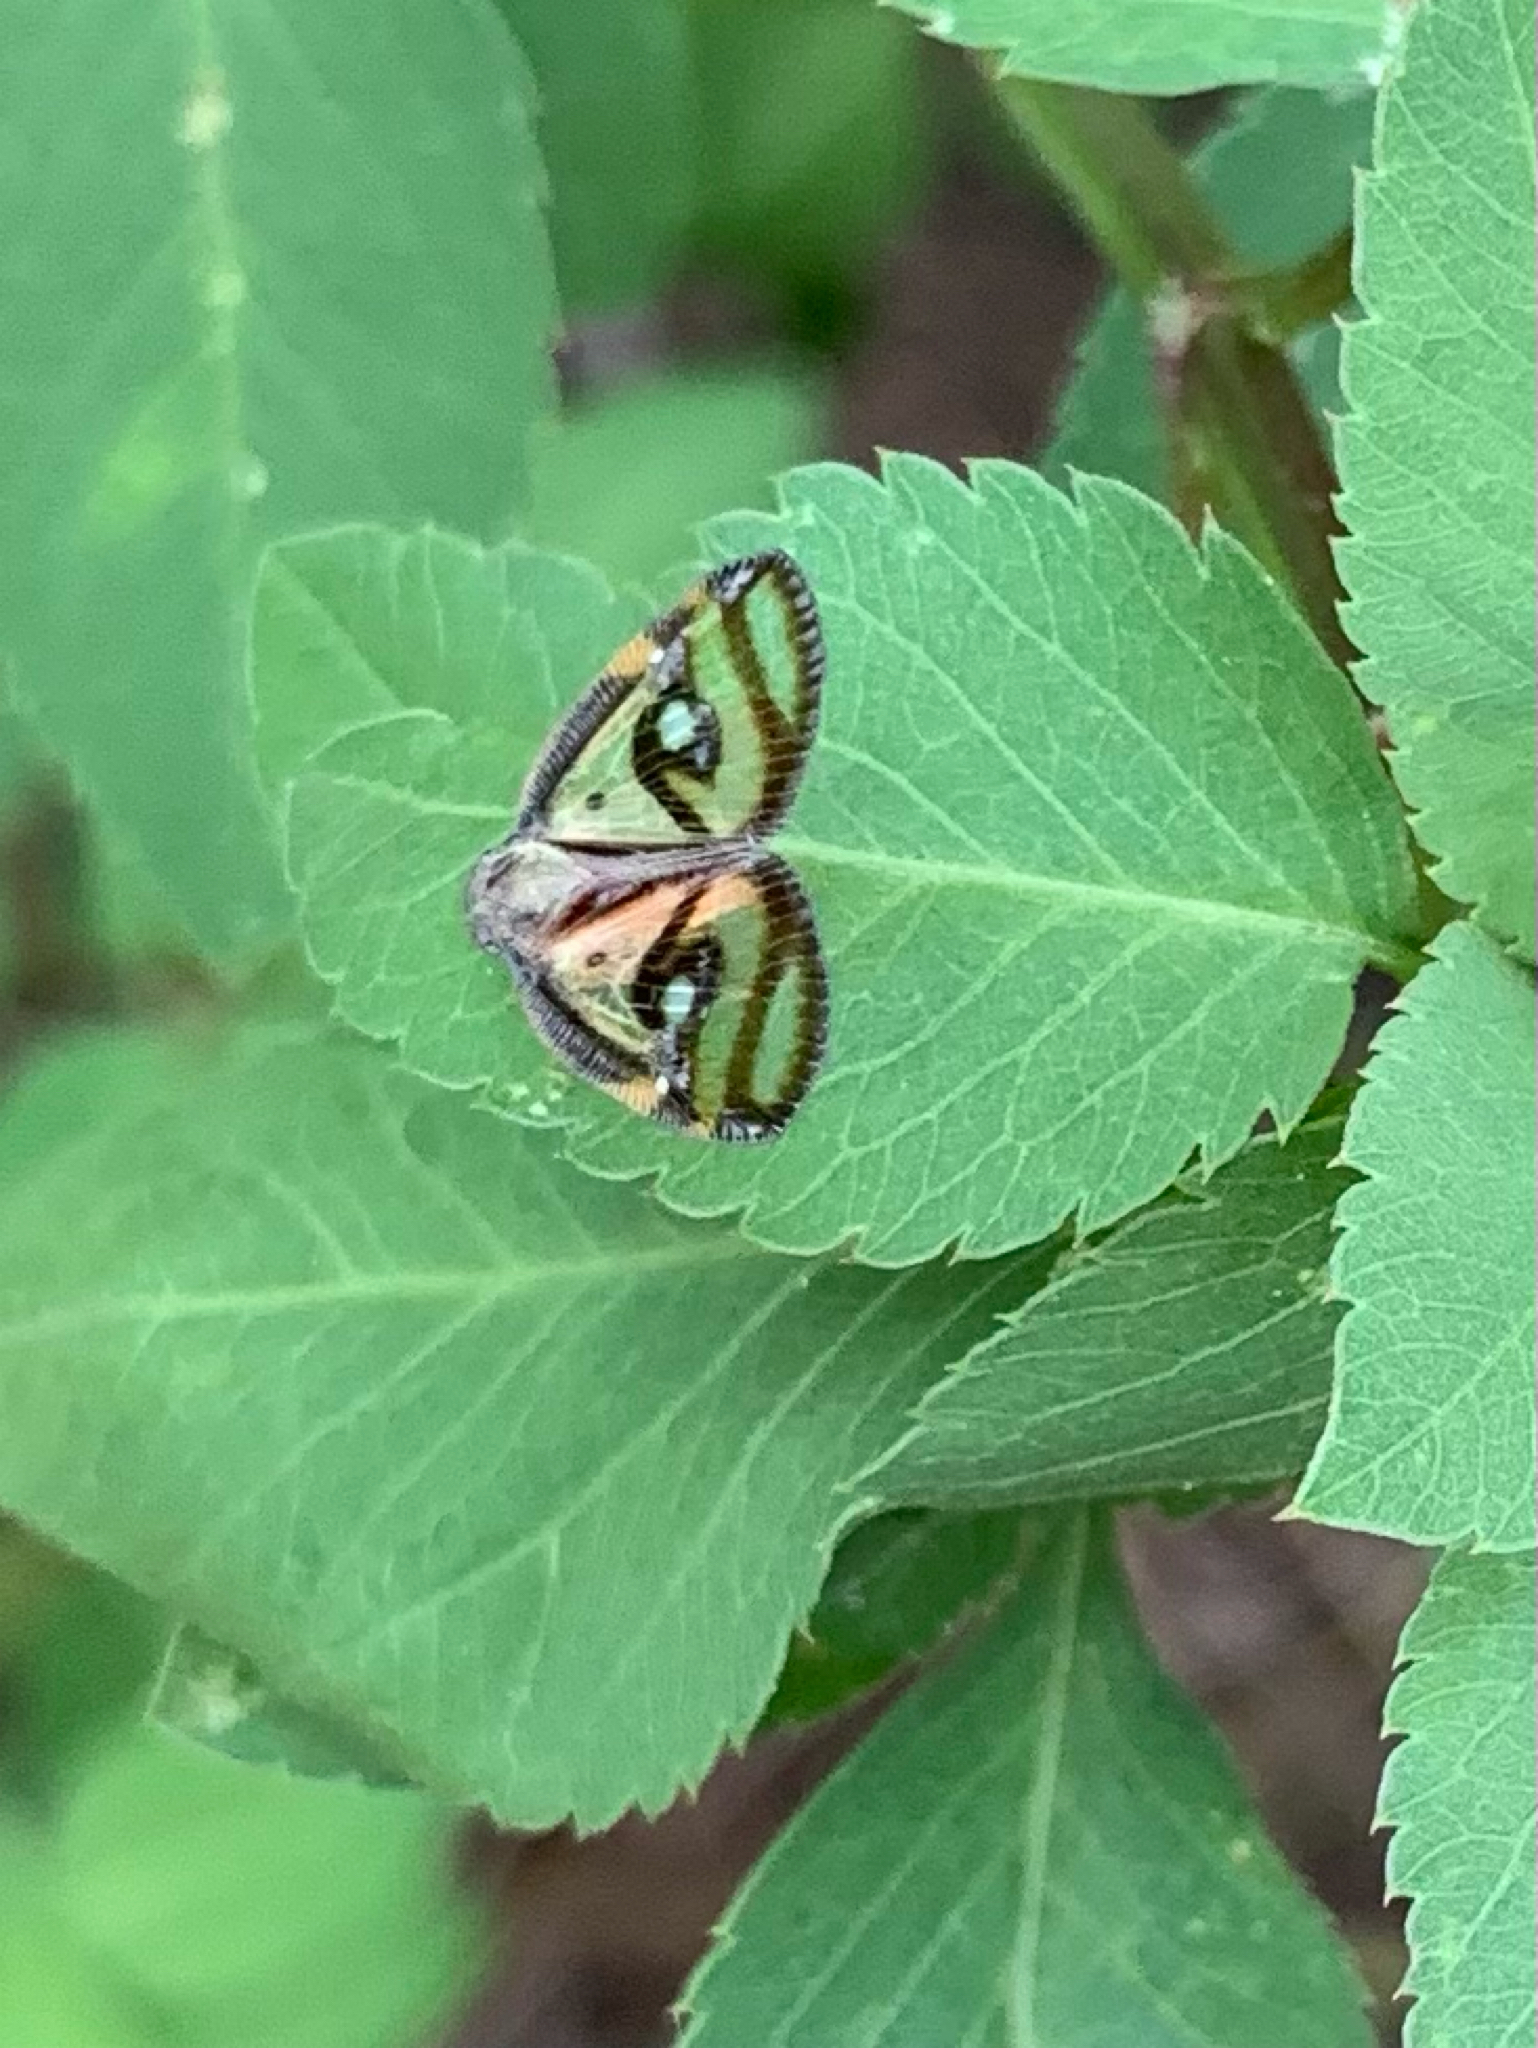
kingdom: Animalia
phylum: Arthropoda
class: Insecta
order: Hemiptera
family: Ricaniidae
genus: Euricania
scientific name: Euricania ocella
